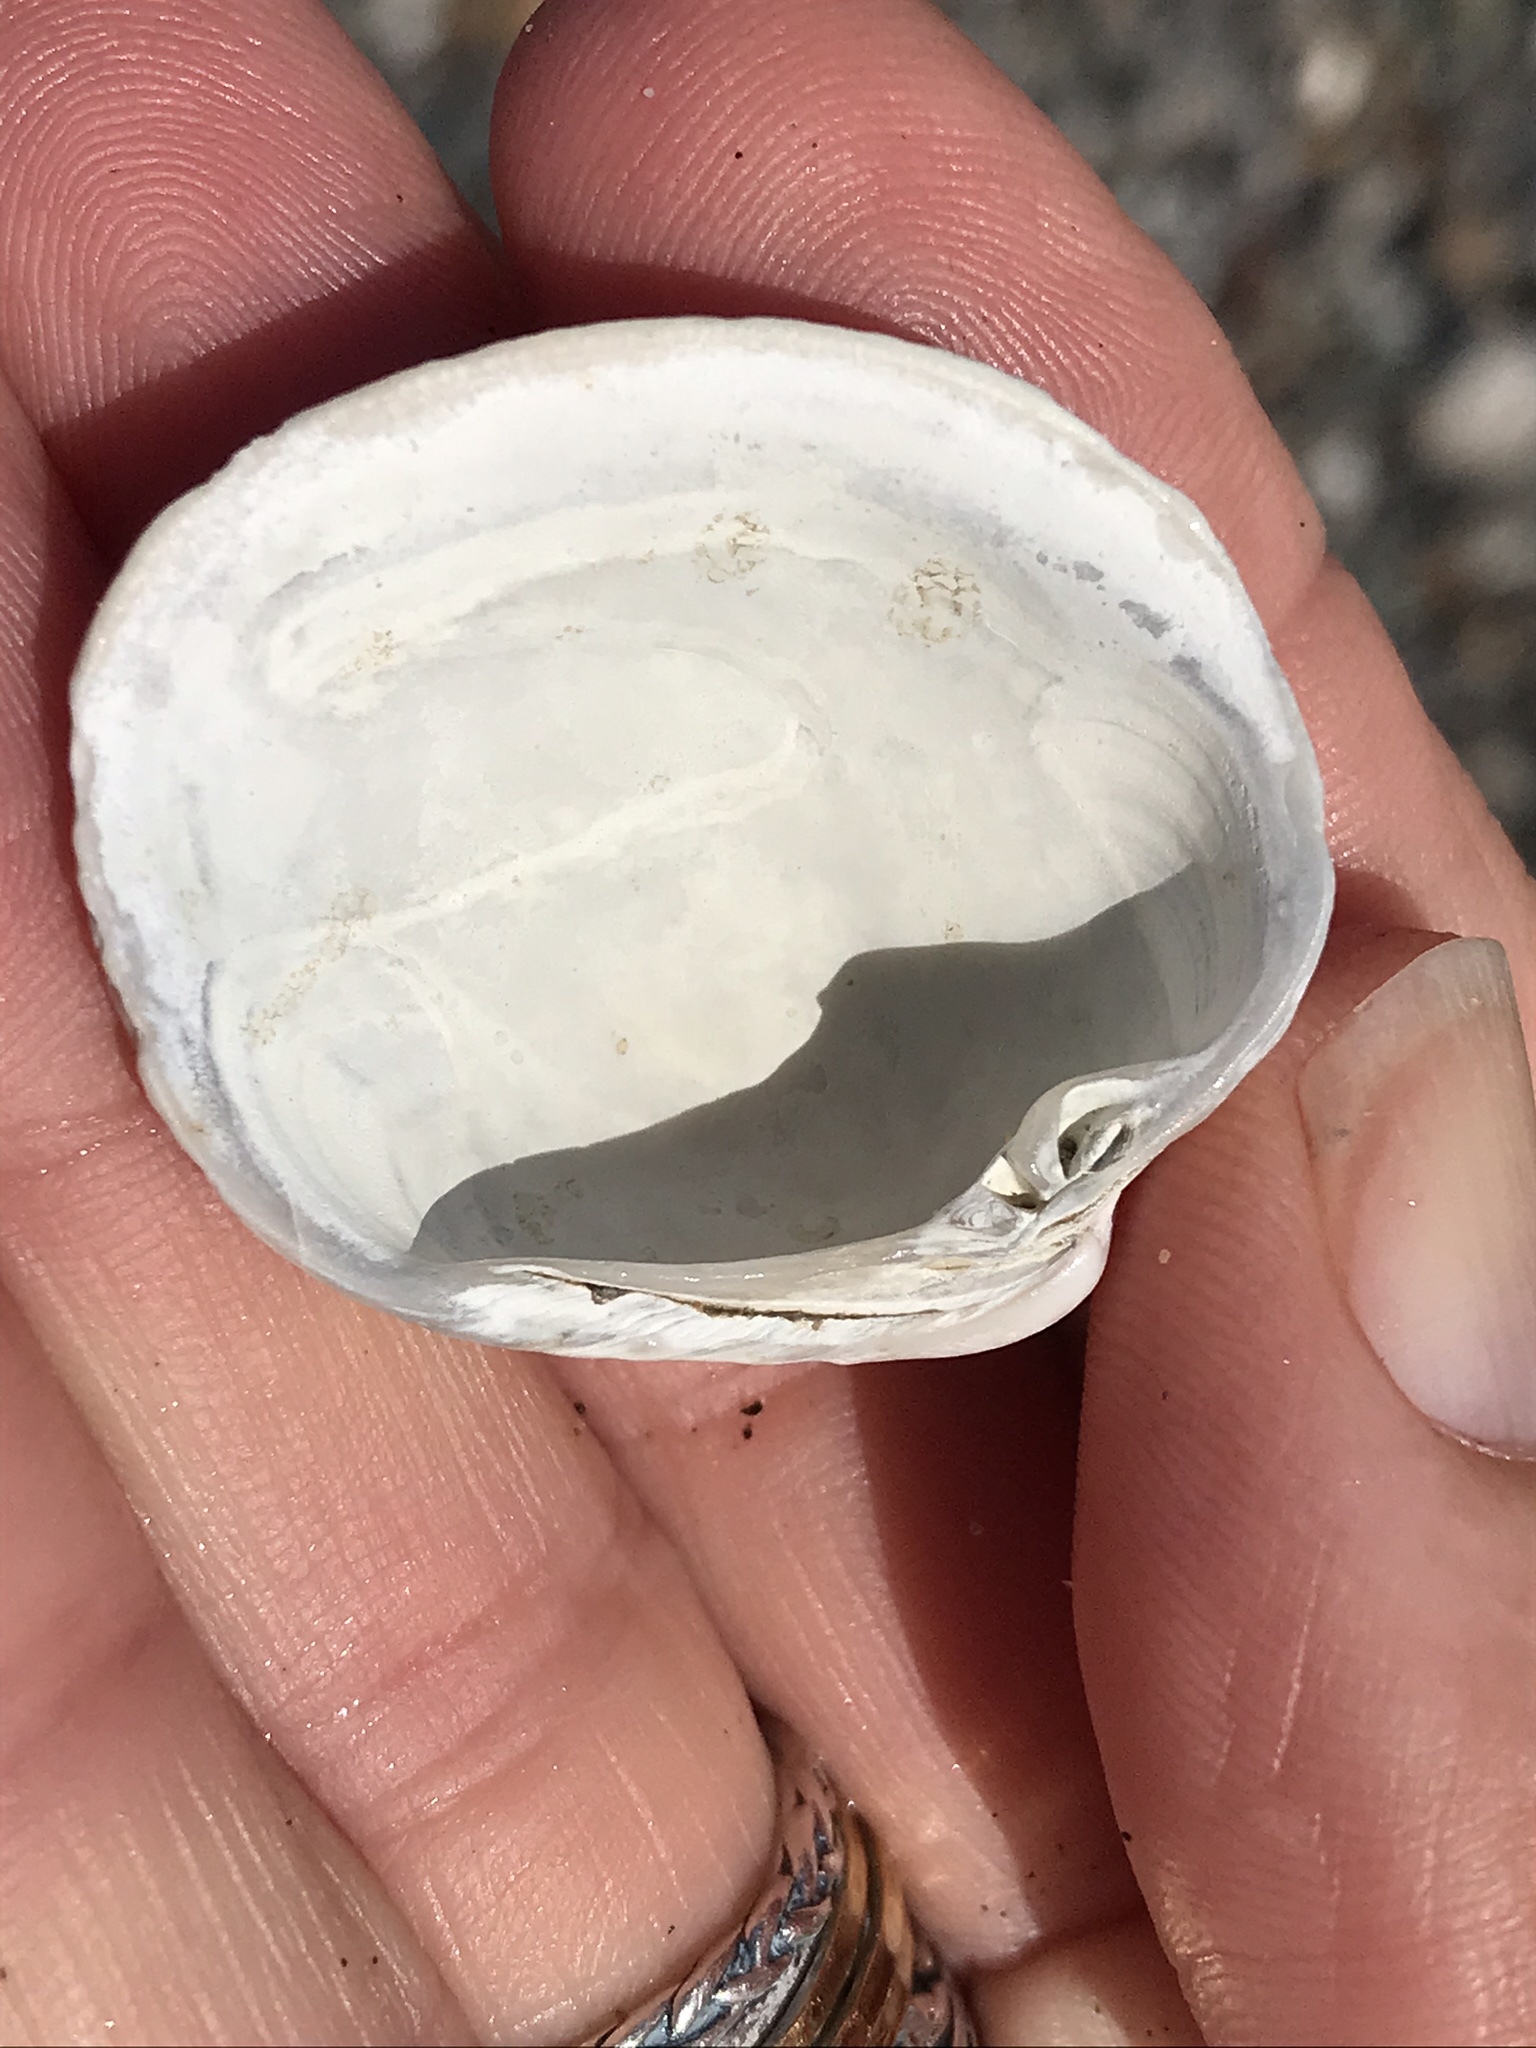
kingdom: Animalia
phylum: Mollusca
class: Bivalvia
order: Venerida
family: Veneridae
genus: Leukoma
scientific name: Leukoma staminea
